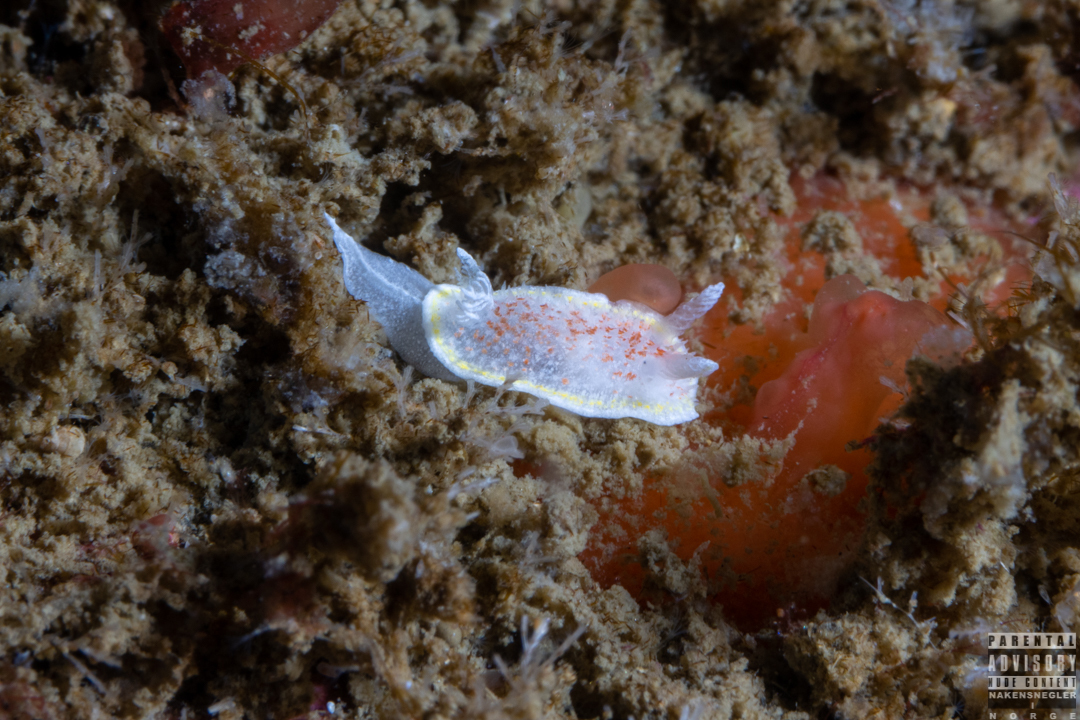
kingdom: Animalia
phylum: Mollusca
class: Gastropoda
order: Nudibranchia
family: Calycidorididae
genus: Diaphorodoris
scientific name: Diaphorodoris luteocincta
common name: Fried egg nudibranch
